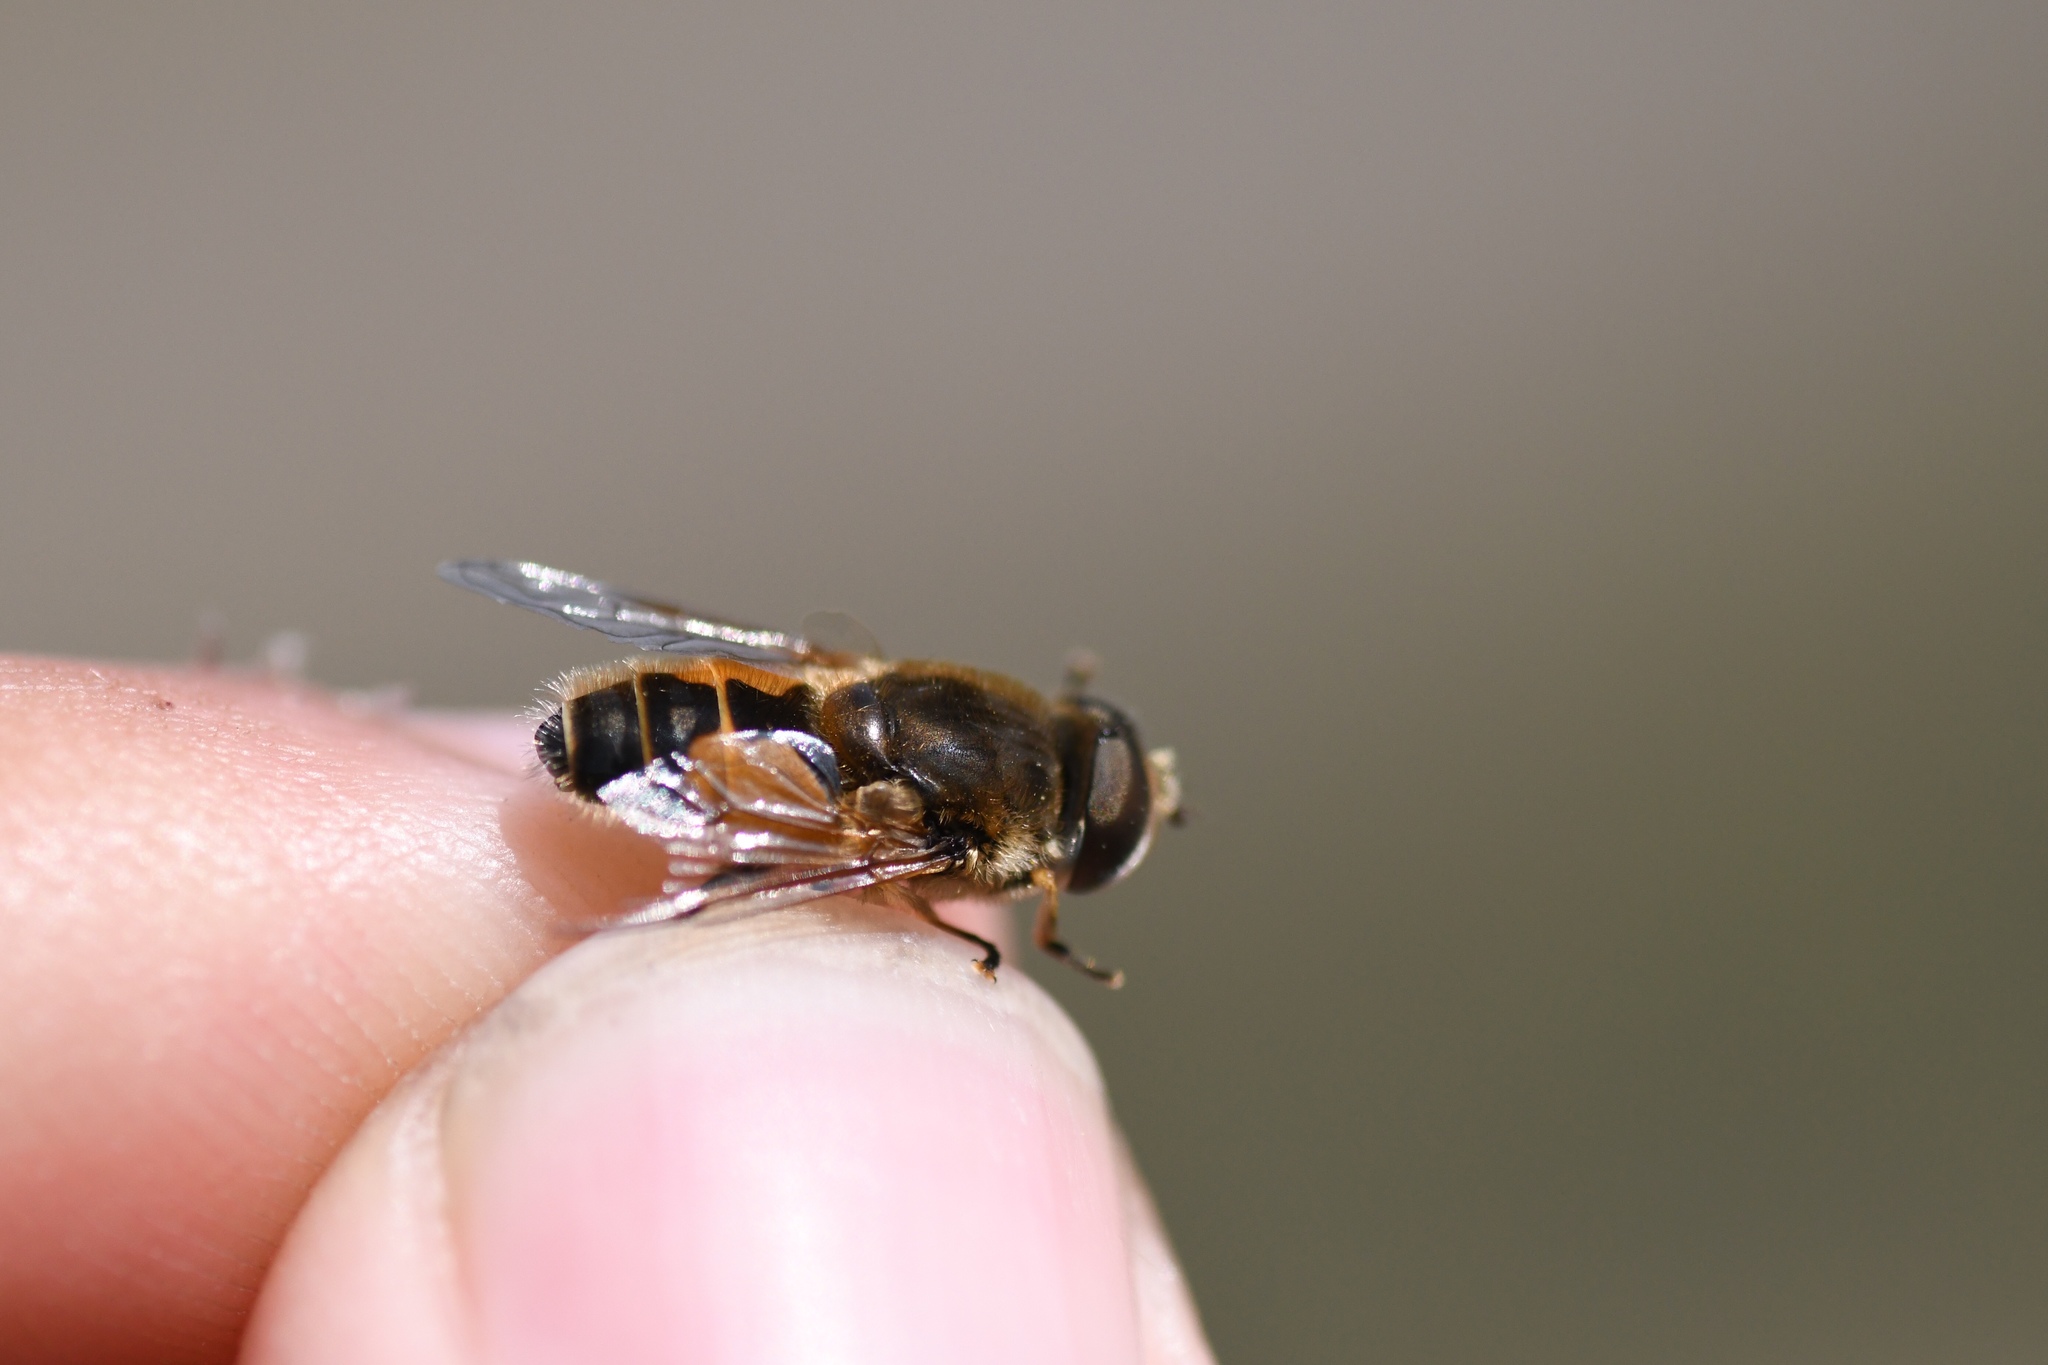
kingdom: Animalia
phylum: Arthropoda
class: Insecta
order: Diptera
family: Syrphidae
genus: Eristalis
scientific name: Eristalis arbustorum
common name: Hover fly
